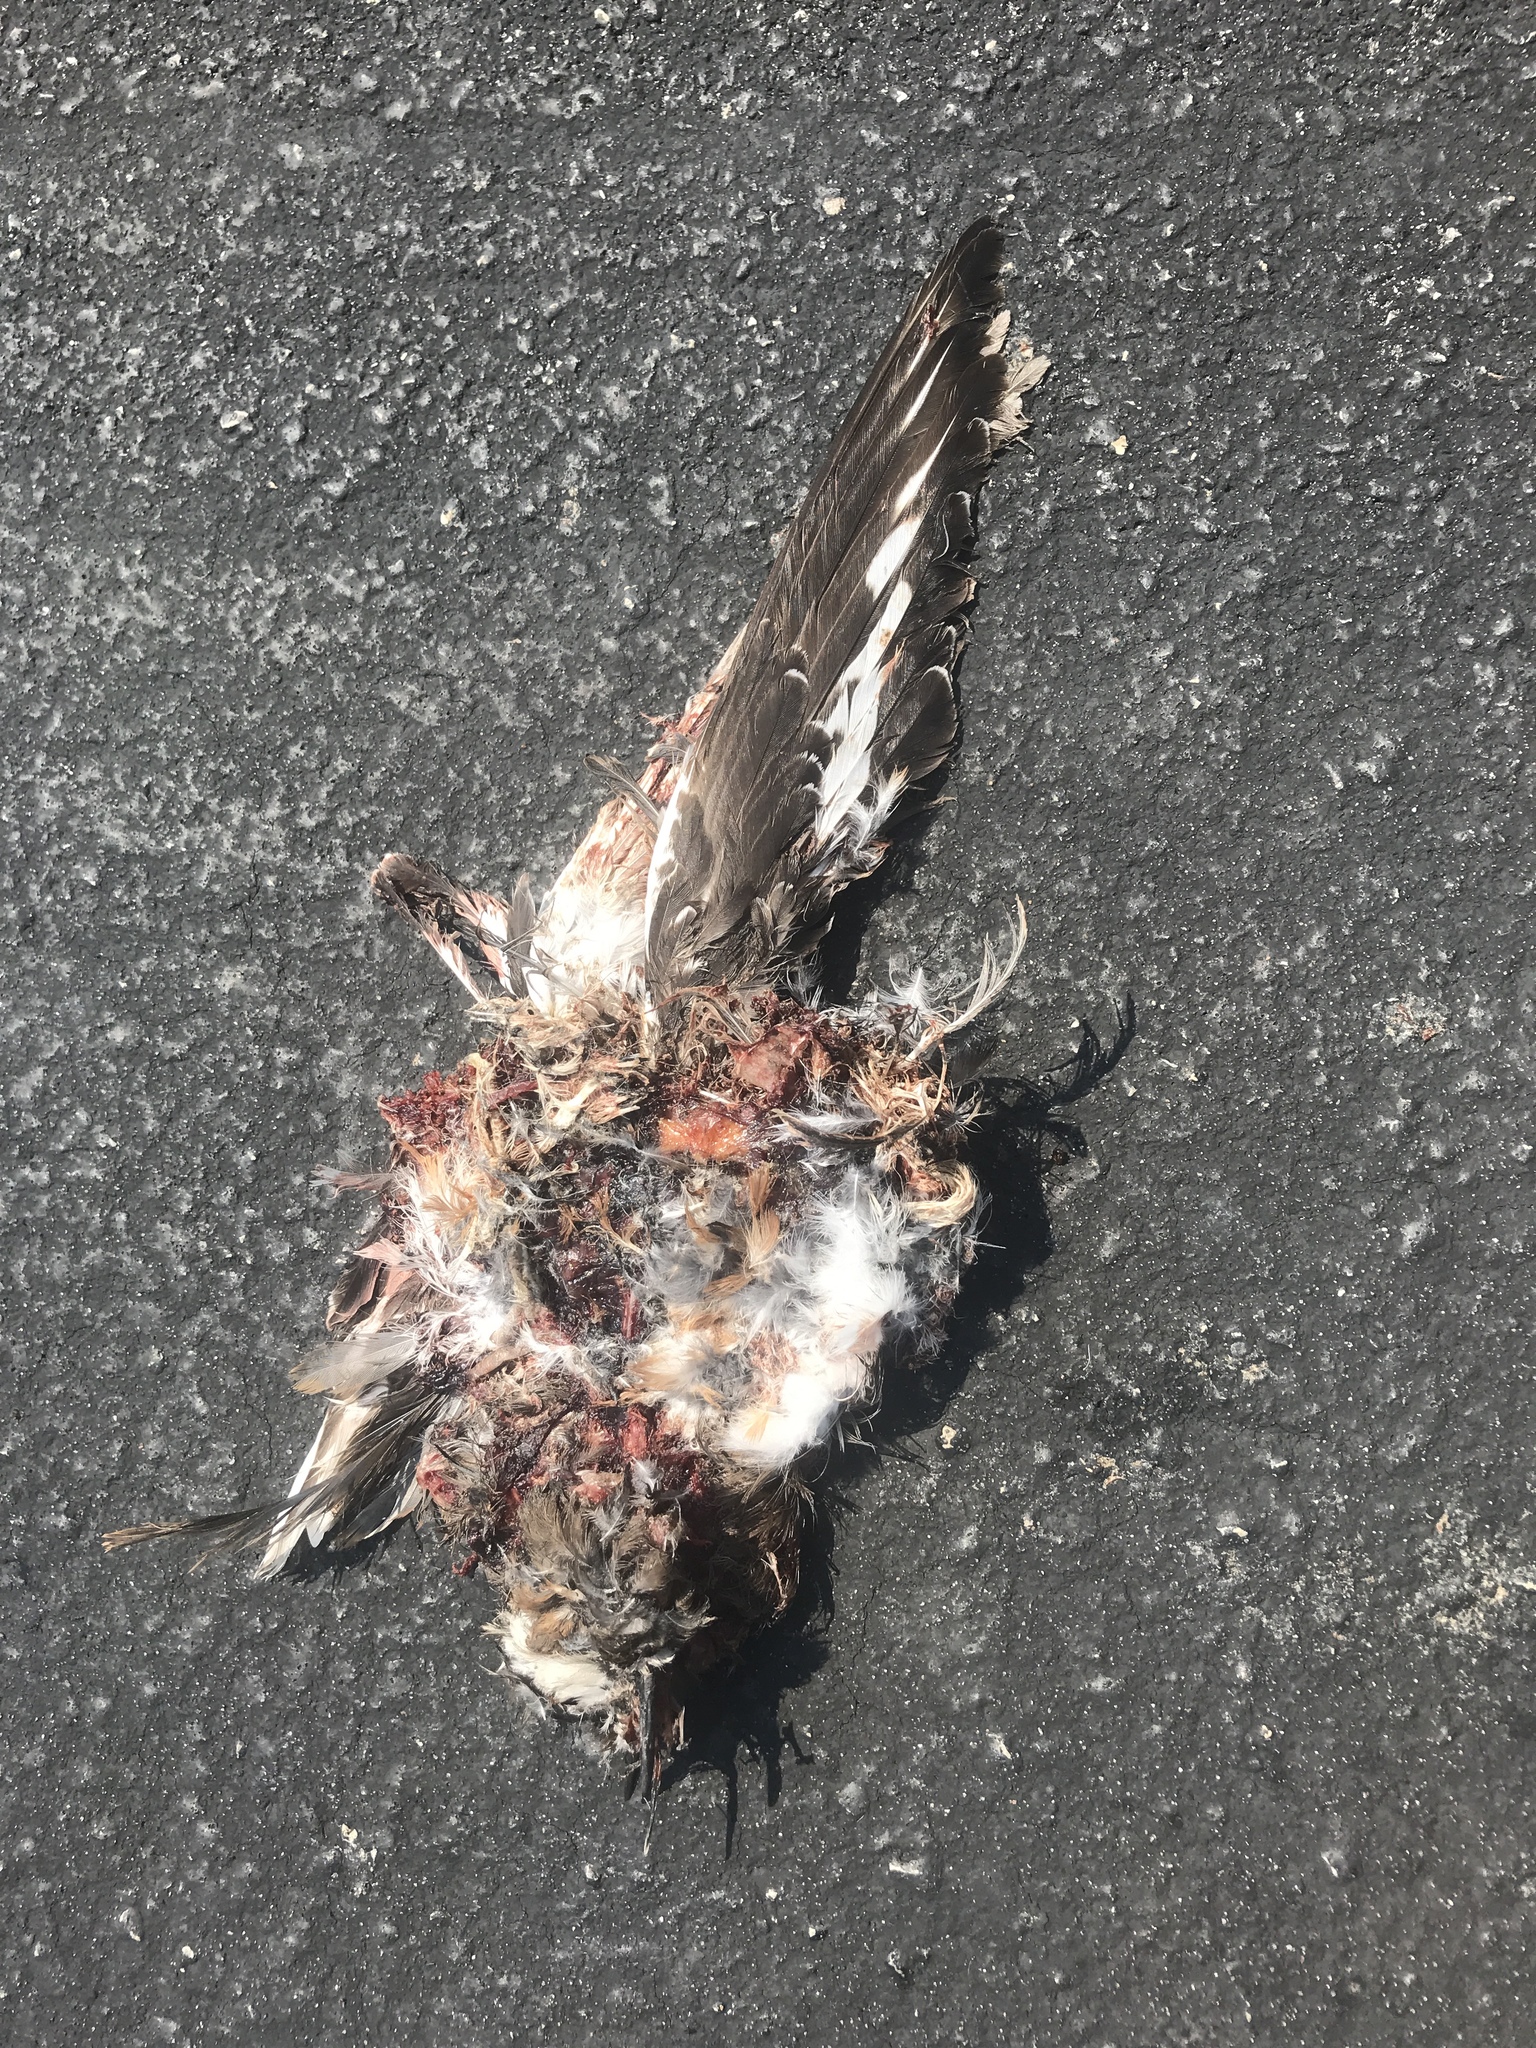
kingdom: Animalia
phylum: Chordata
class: Aves
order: Charadriiformes
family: Charadriidae
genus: Charadrius
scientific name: Charadrius vociferus
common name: Killdeer
